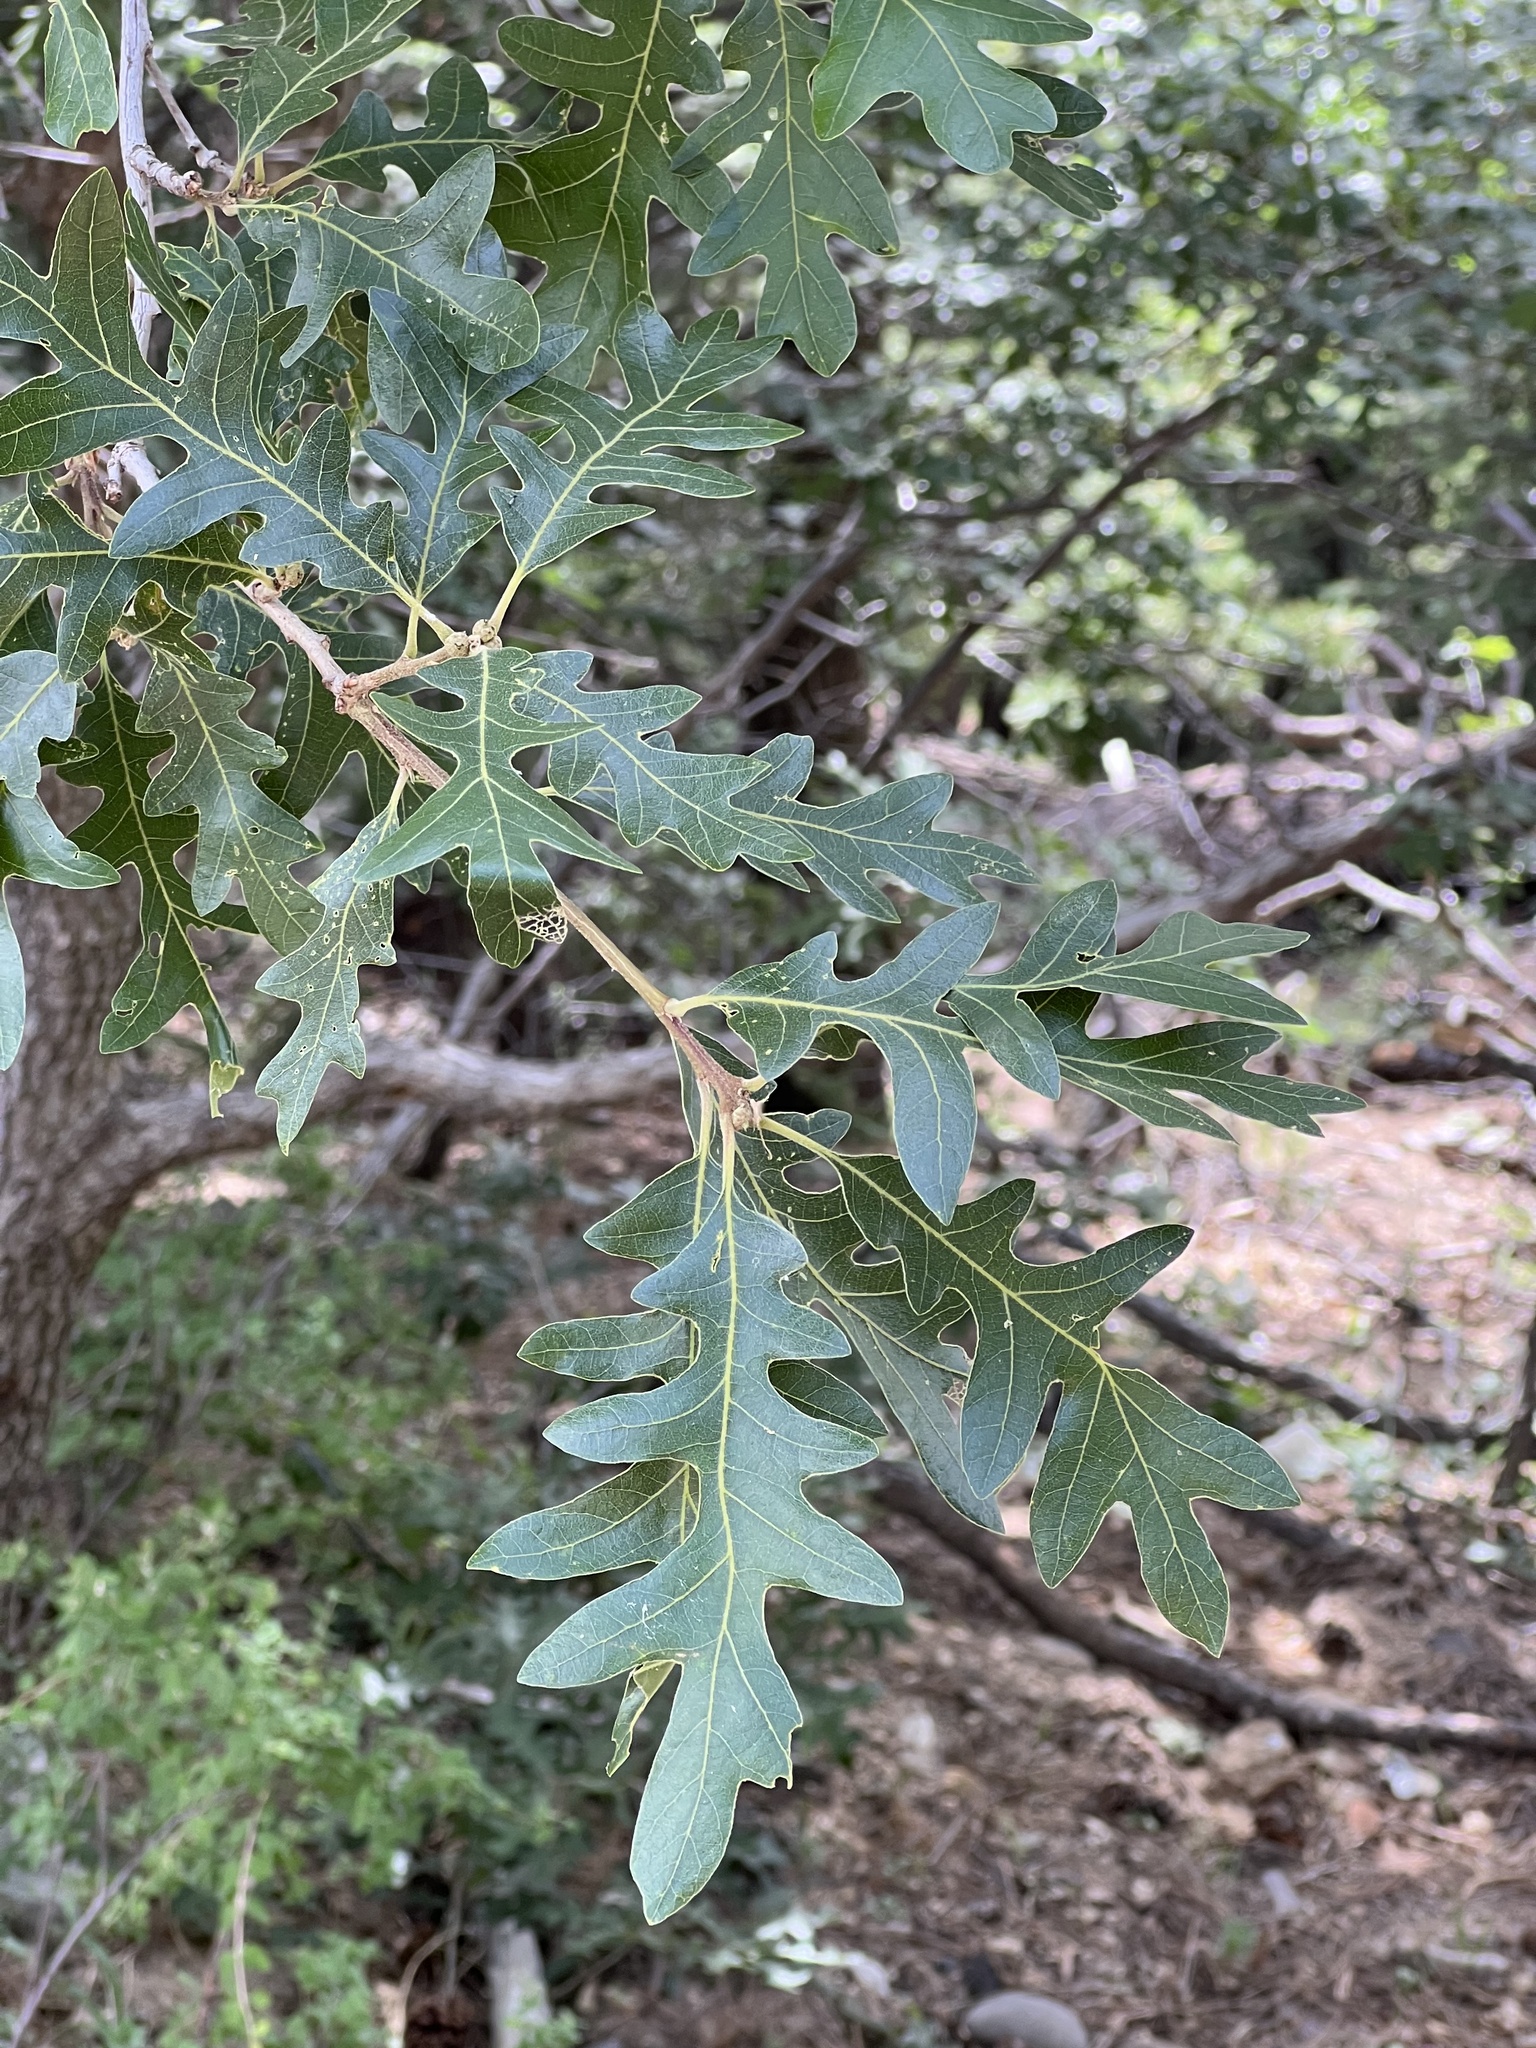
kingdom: Plantae
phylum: Tracheophyta
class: Magnoliopsida
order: Fagales
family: Fagaceae
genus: Quercus
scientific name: Quercus gambelii
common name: Gambel oak
